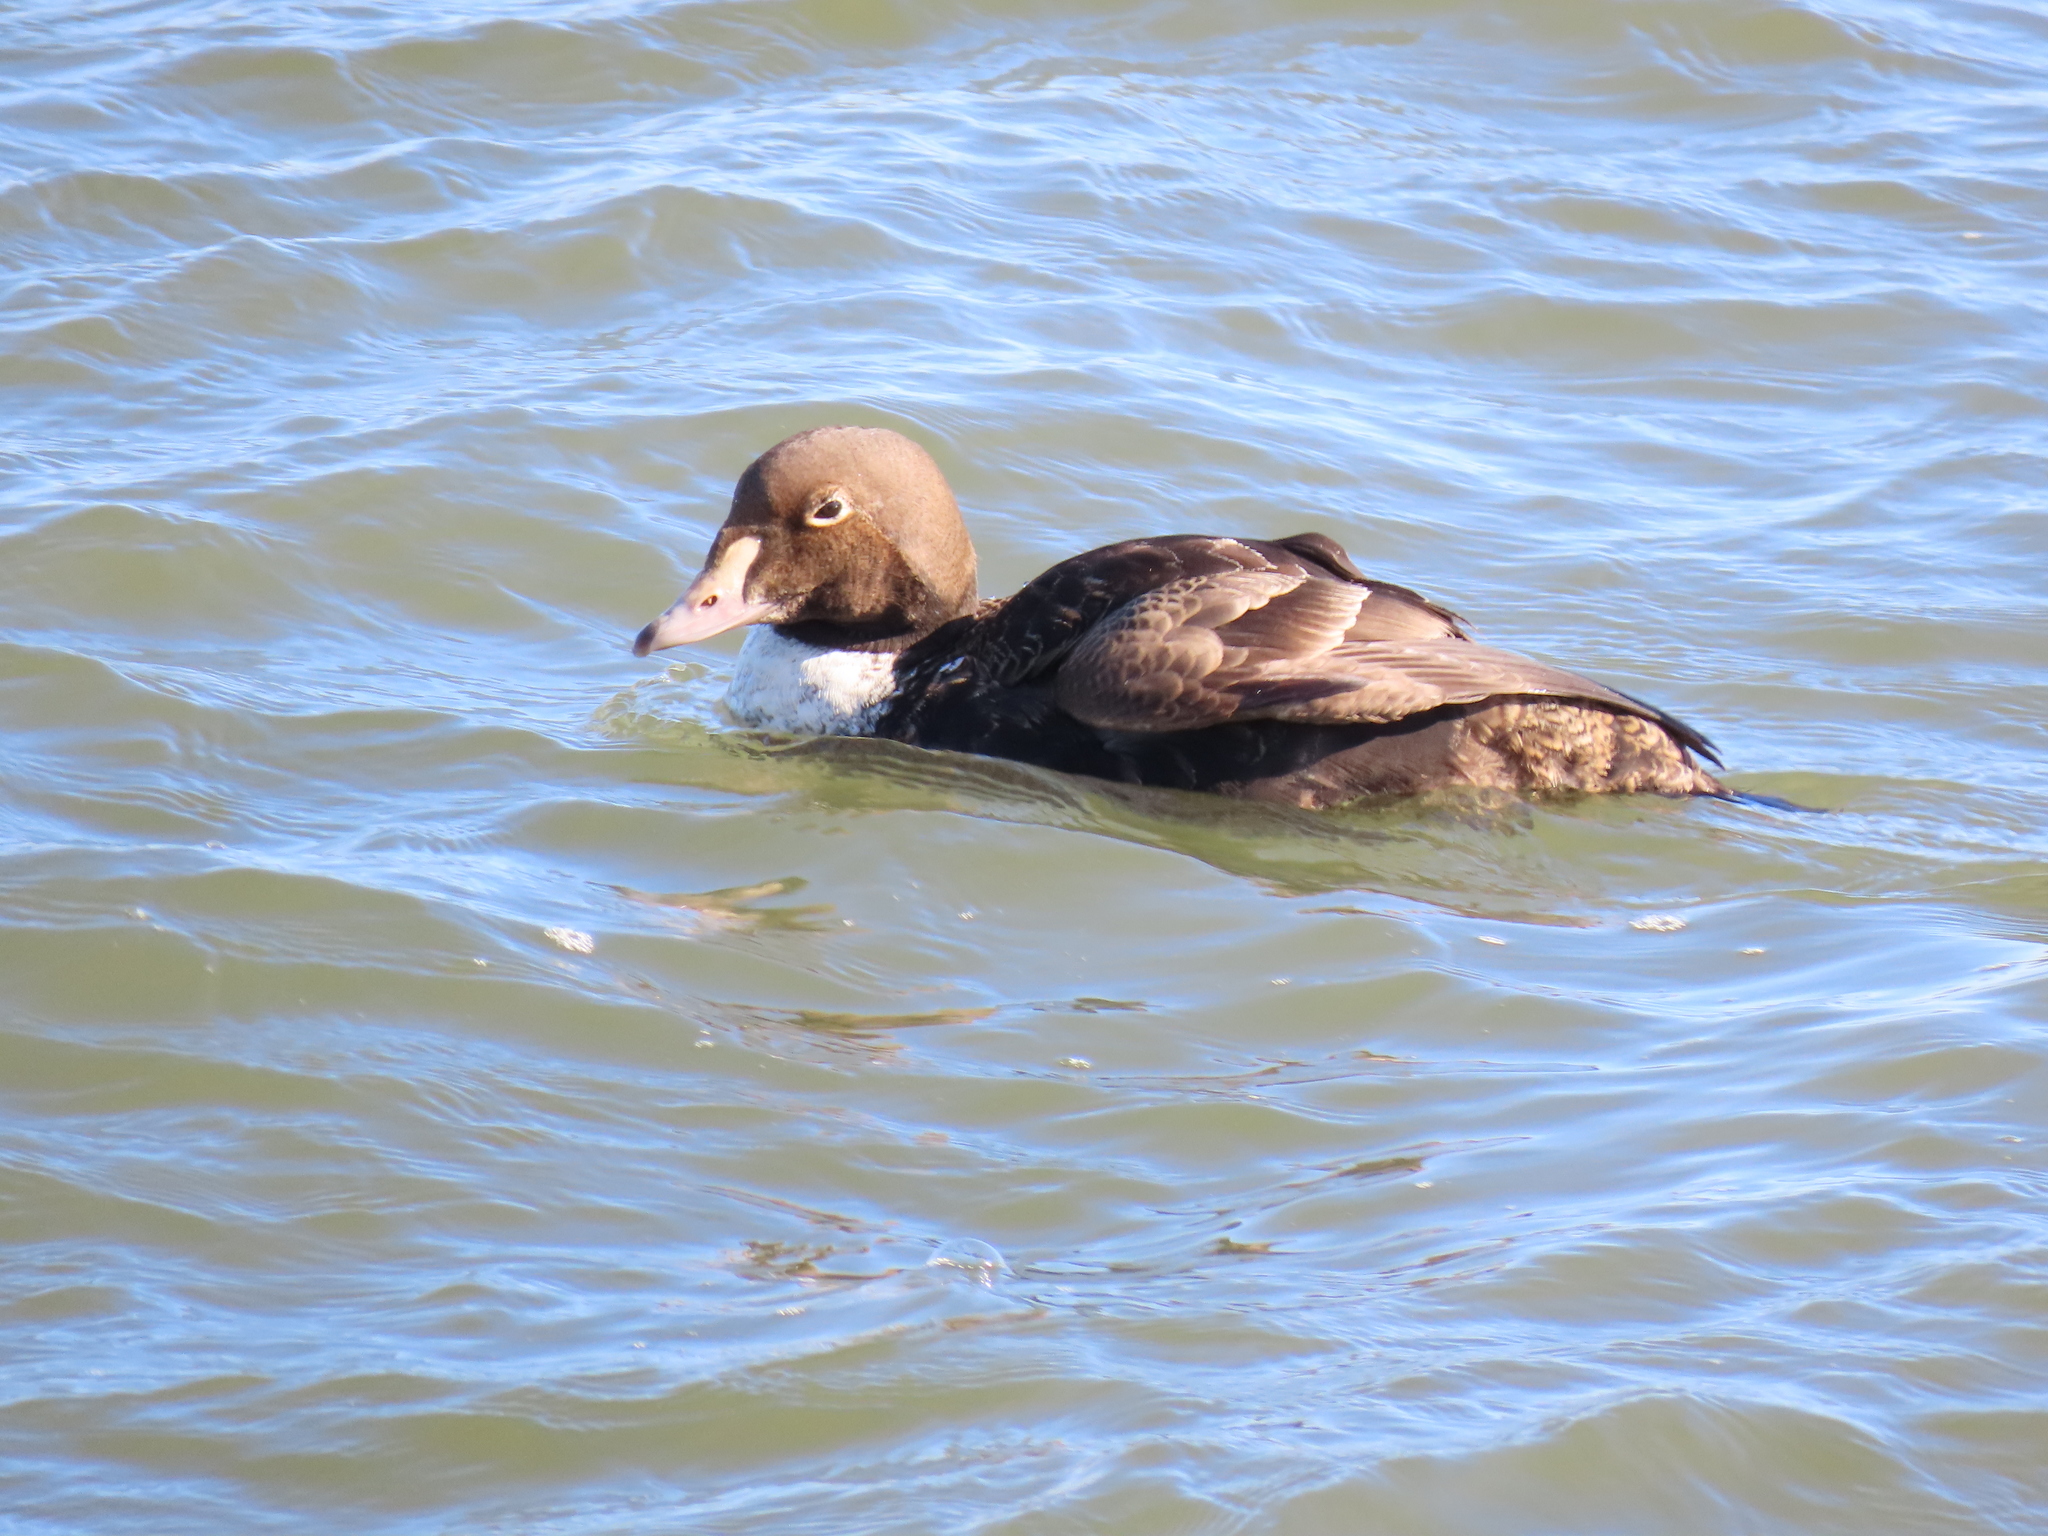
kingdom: Animalia
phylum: Chordata
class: Aves
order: Anseriformes
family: Anatidae
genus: Somateria
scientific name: Somateria spectabilis
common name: King eider
